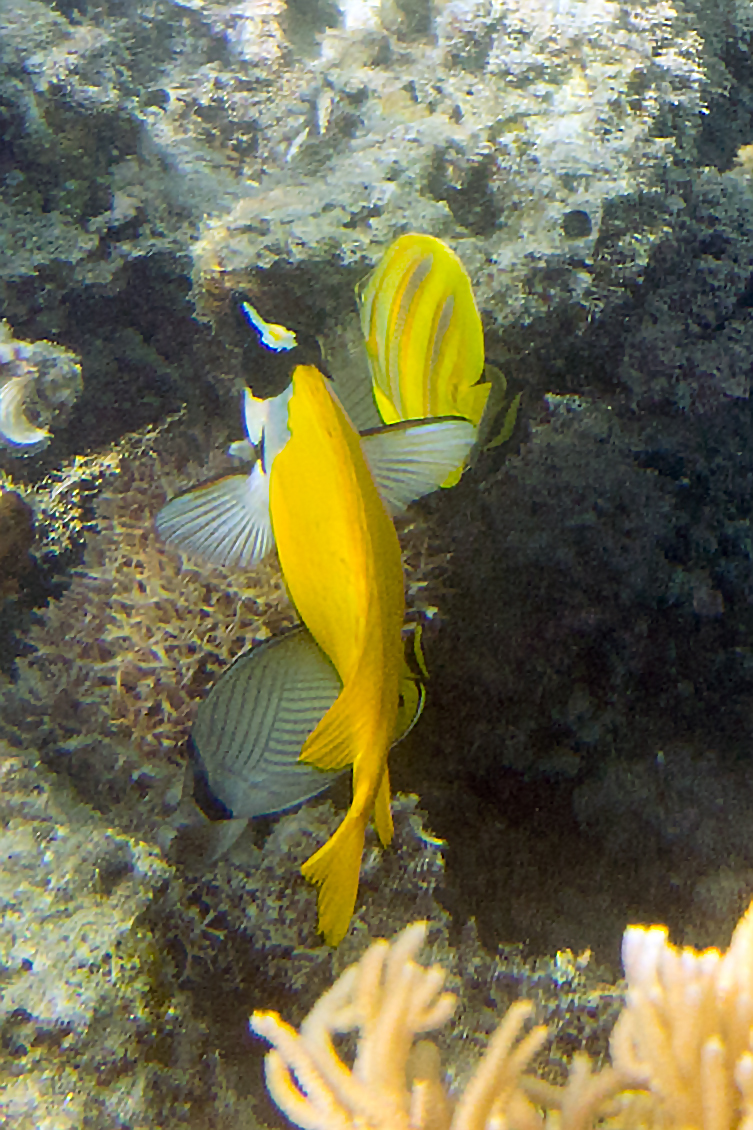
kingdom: Animalia
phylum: Chordata
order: Perciformes
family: Siganidae
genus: Siganus
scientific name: Siganus vulpinus
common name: Foxface
